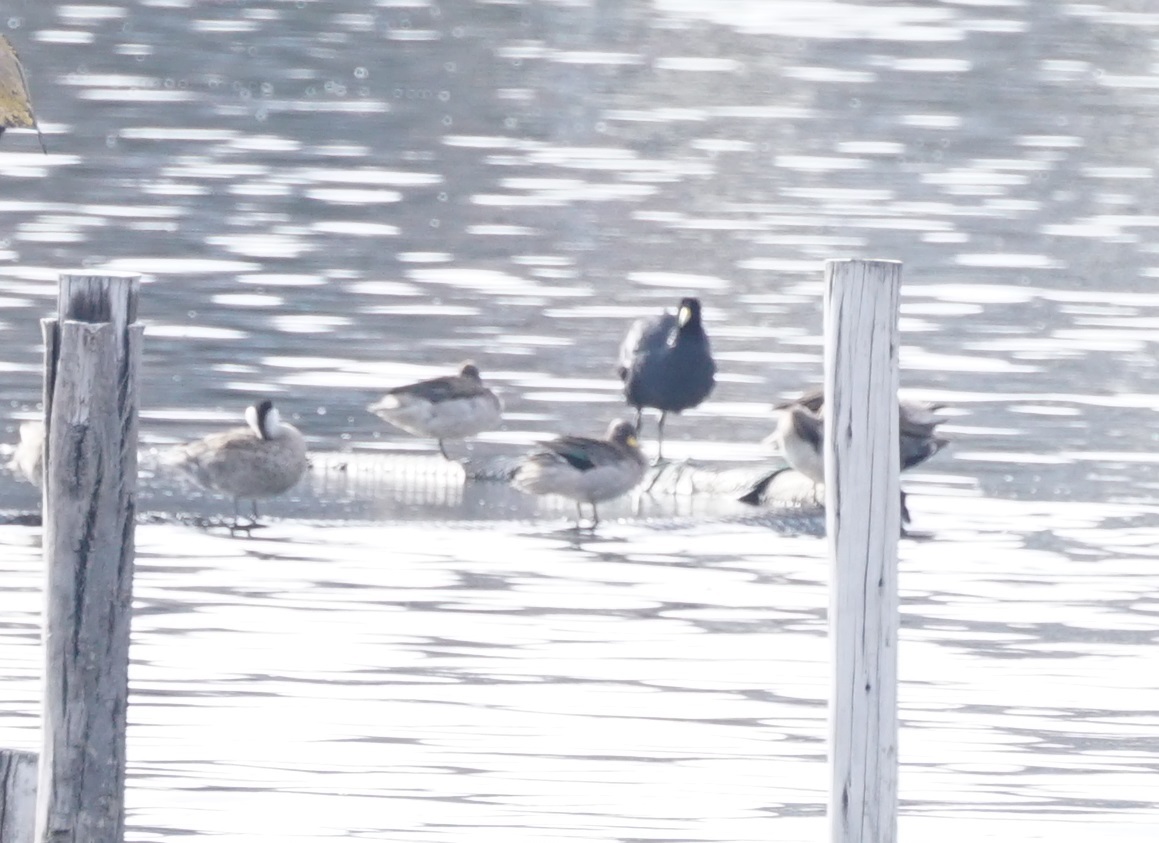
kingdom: Animalia
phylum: Chordata
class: Aves
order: Anseriformes
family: Anatidae
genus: Anas
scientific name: Anas flavirostris
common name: Yellow-billed teal
